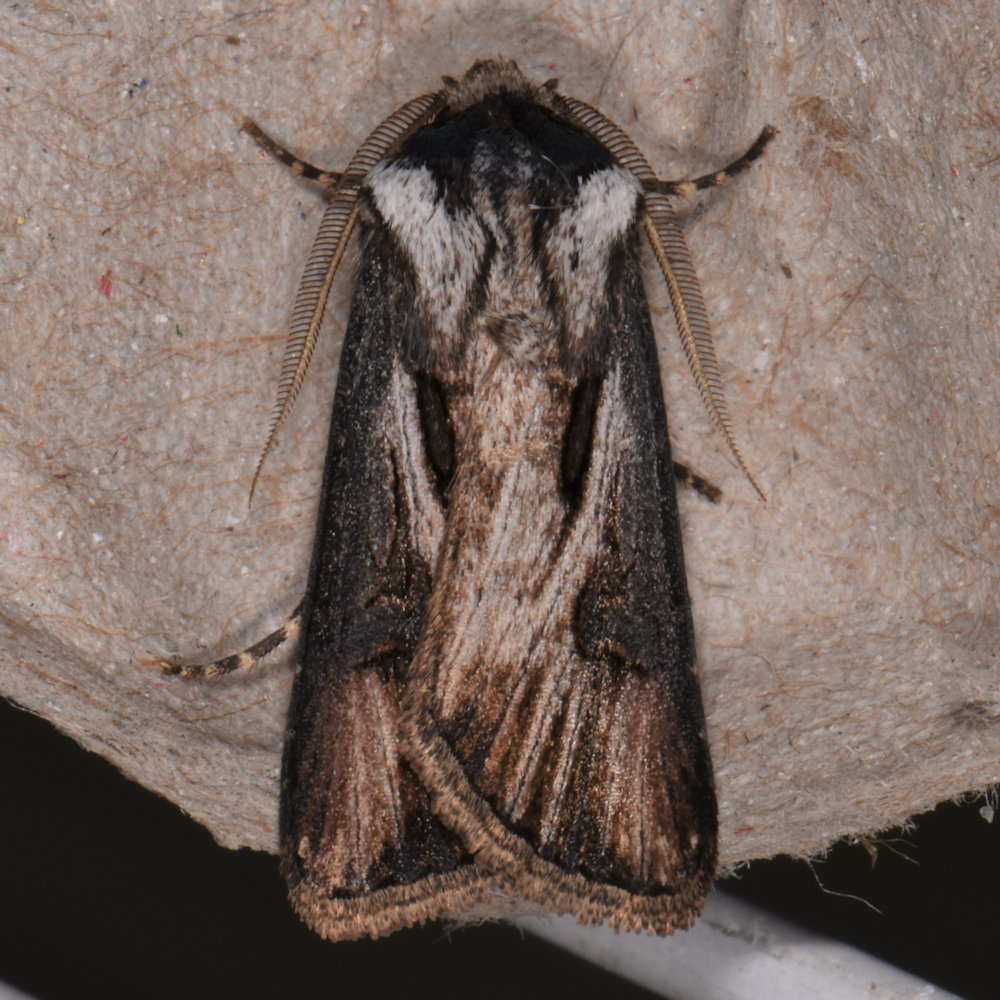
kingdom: Animalia
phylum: Arthropoda
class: Insecta
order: Lepidoptera
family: Noctuidae
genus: Agrotis
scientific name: Agrotis venerabilis
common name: Venerable dart
